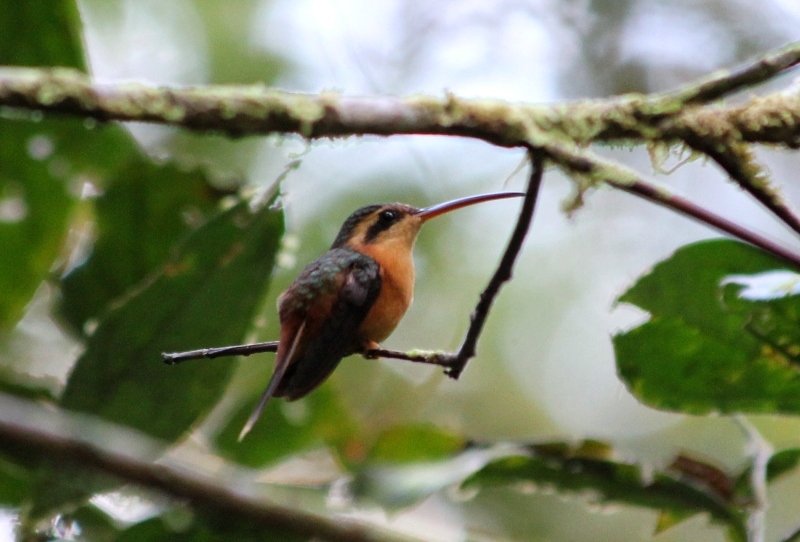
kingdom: Animalia
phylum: Chordata
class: Aves
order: Apodiformes
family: Trochilidae
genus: Phaethornis
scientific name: Phaethornis ruber
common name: Reddish hermit
